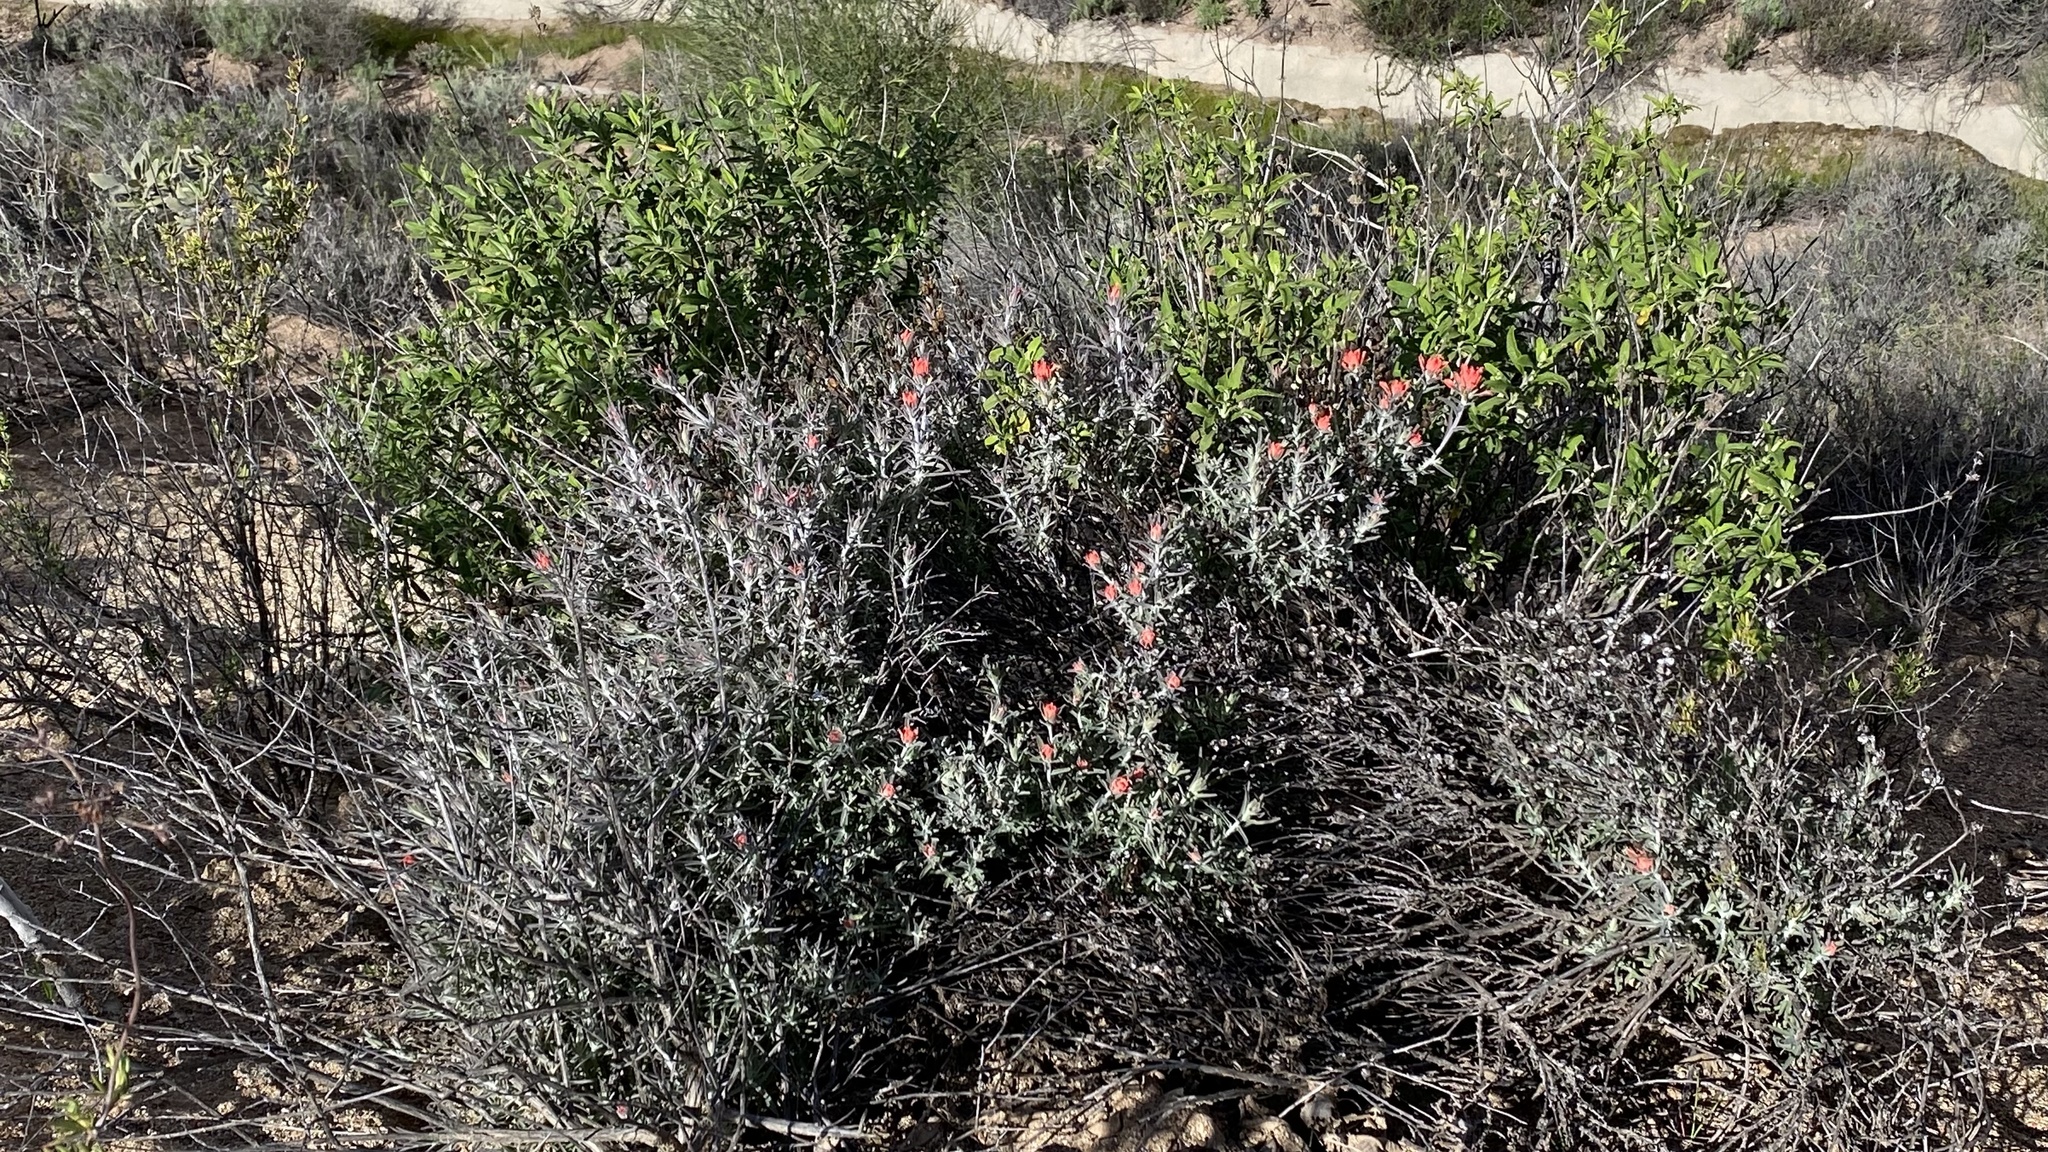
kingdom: Plantae
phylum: Tracheophyta
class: Magnoliopsida
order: Lamiales
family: Orobanchaceae
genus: Castilleja
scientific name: Castilleja foliolosa
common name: Woolly indian paintbrush
